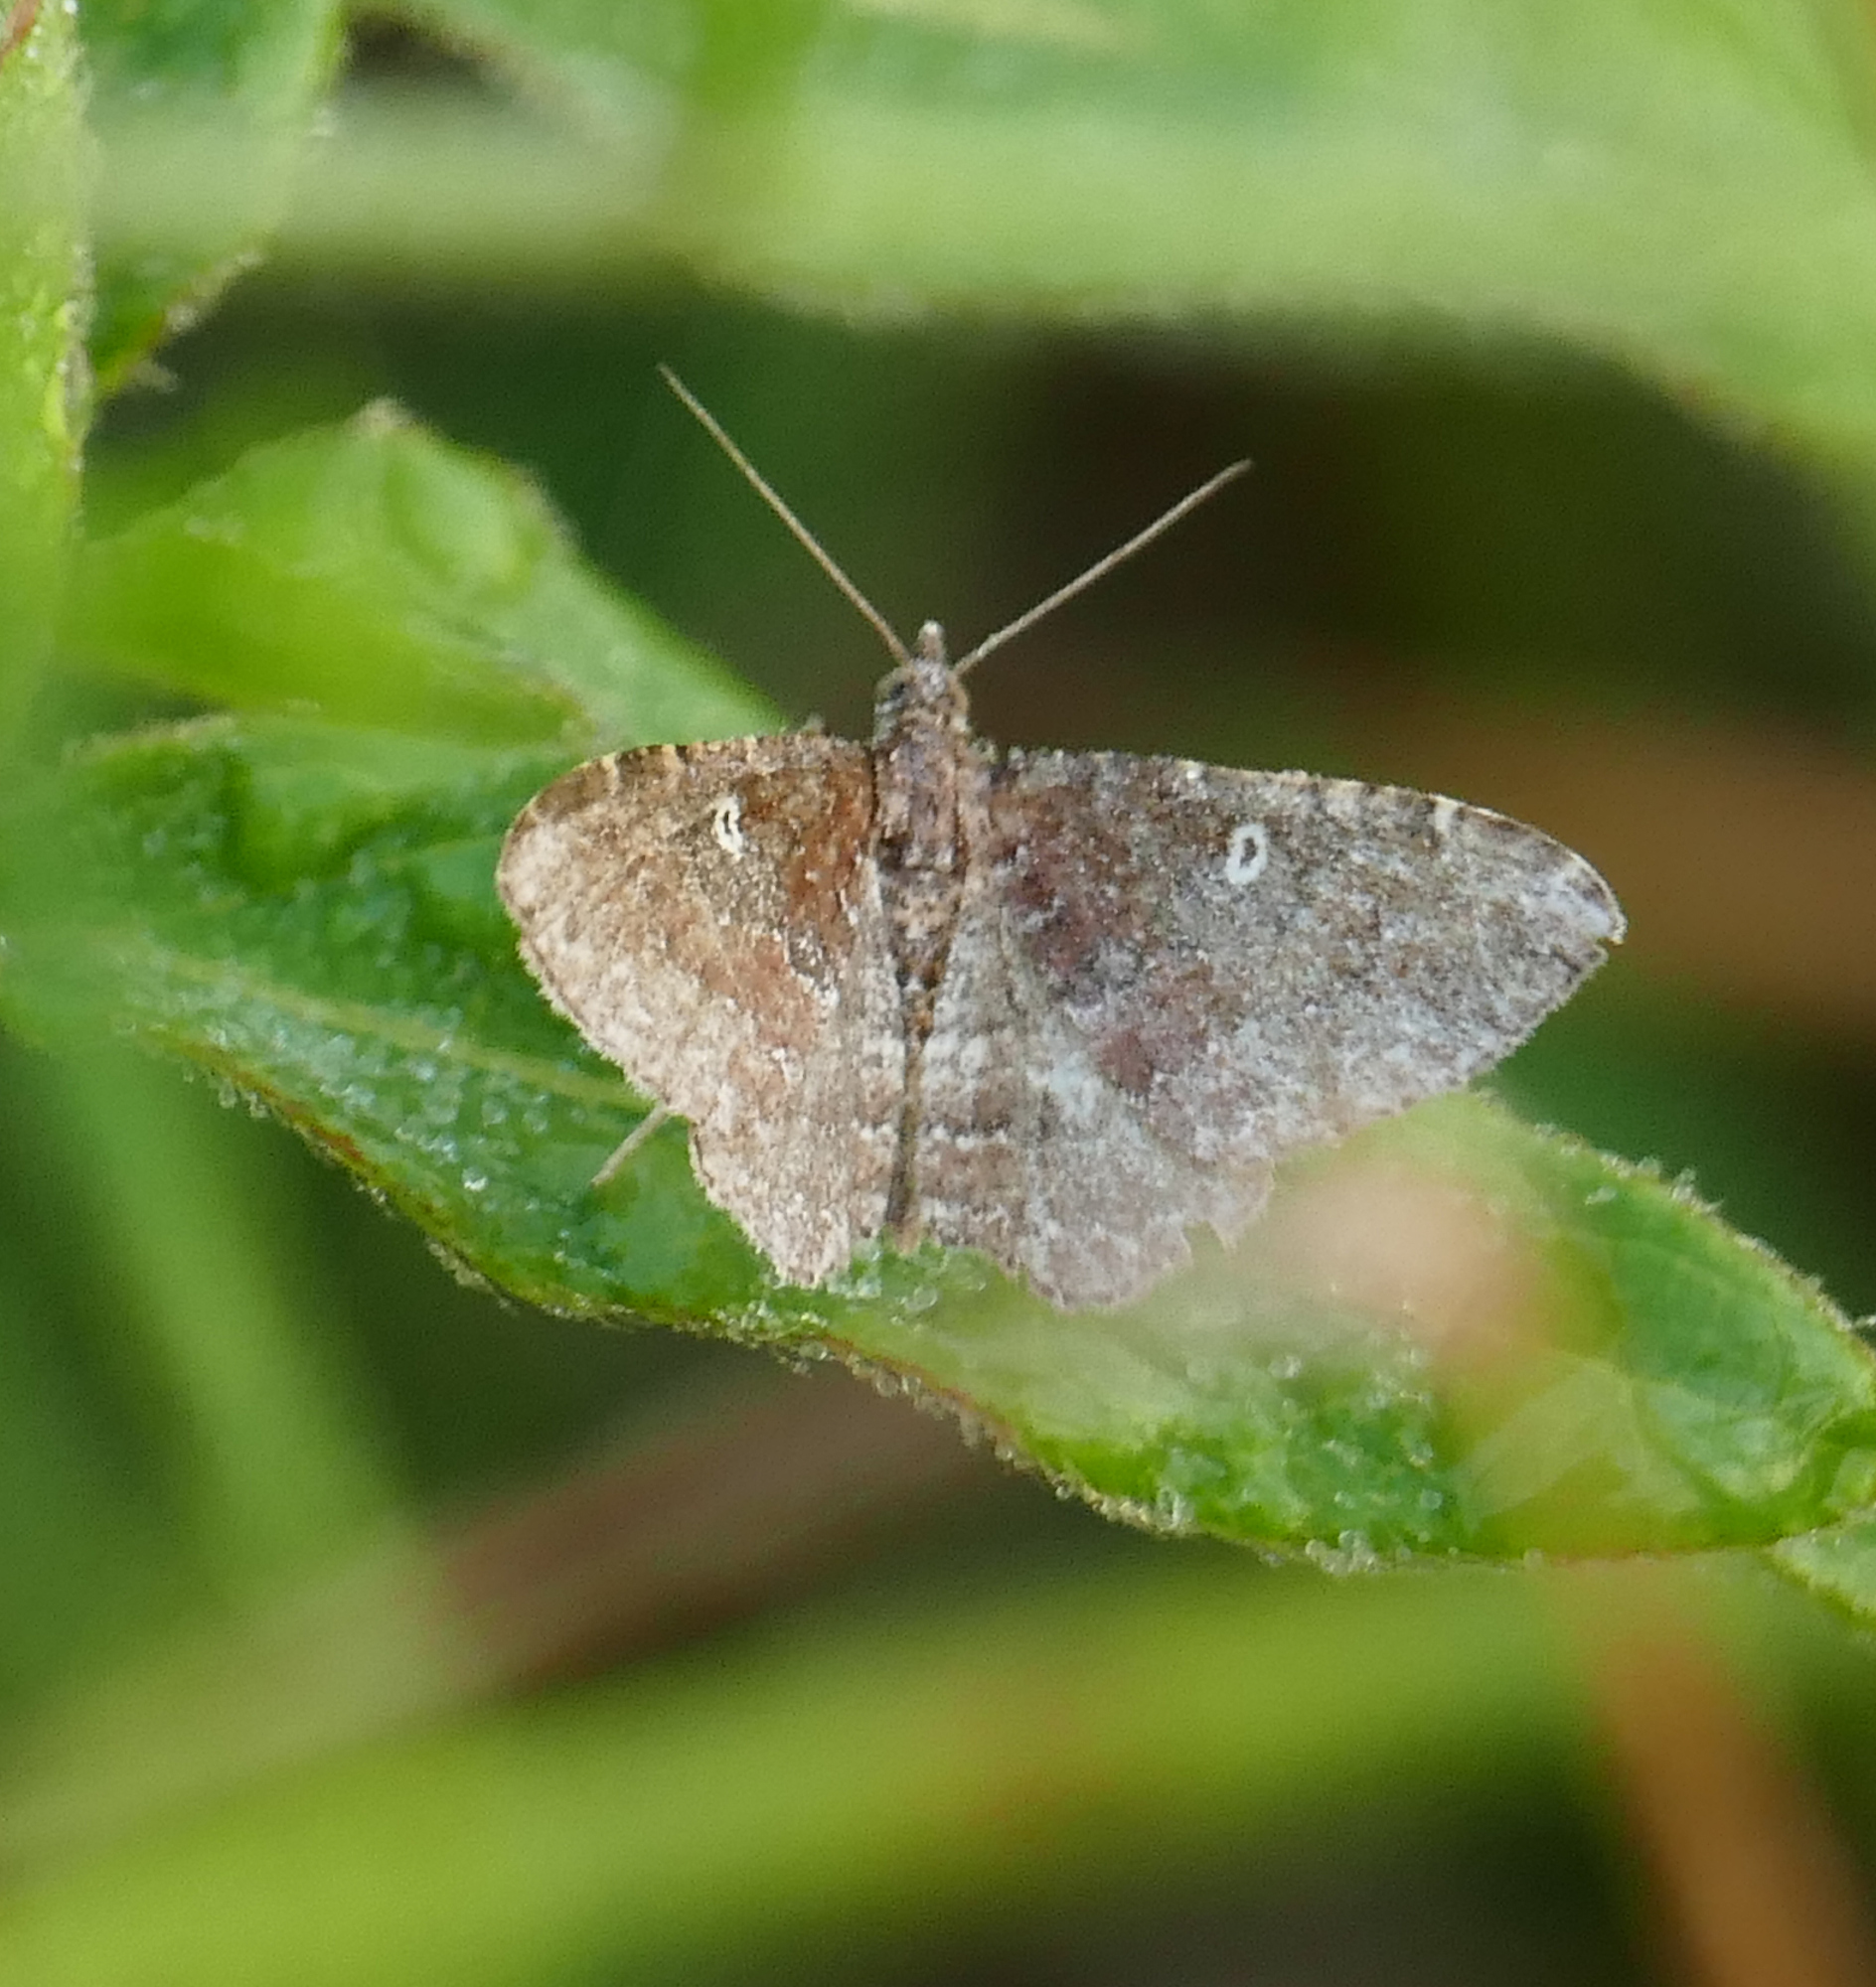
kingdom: Animalia
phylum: Arthropoda
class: Insecta
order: Lepidoptera
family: Geometridae
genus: Orthonama
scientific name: Orthonama obstipata
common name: The gem
